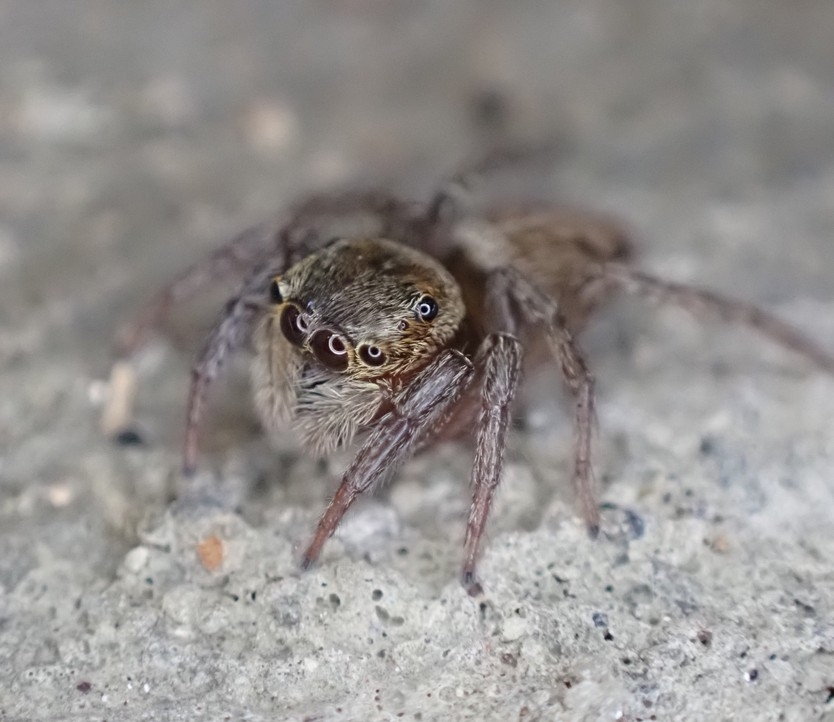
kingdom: Animalia
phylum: Arthropoda
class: Arachnida
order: Araneae
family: Salticidae
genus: Hasarius
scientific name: Hasarius adansoni
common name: Jumping spider
